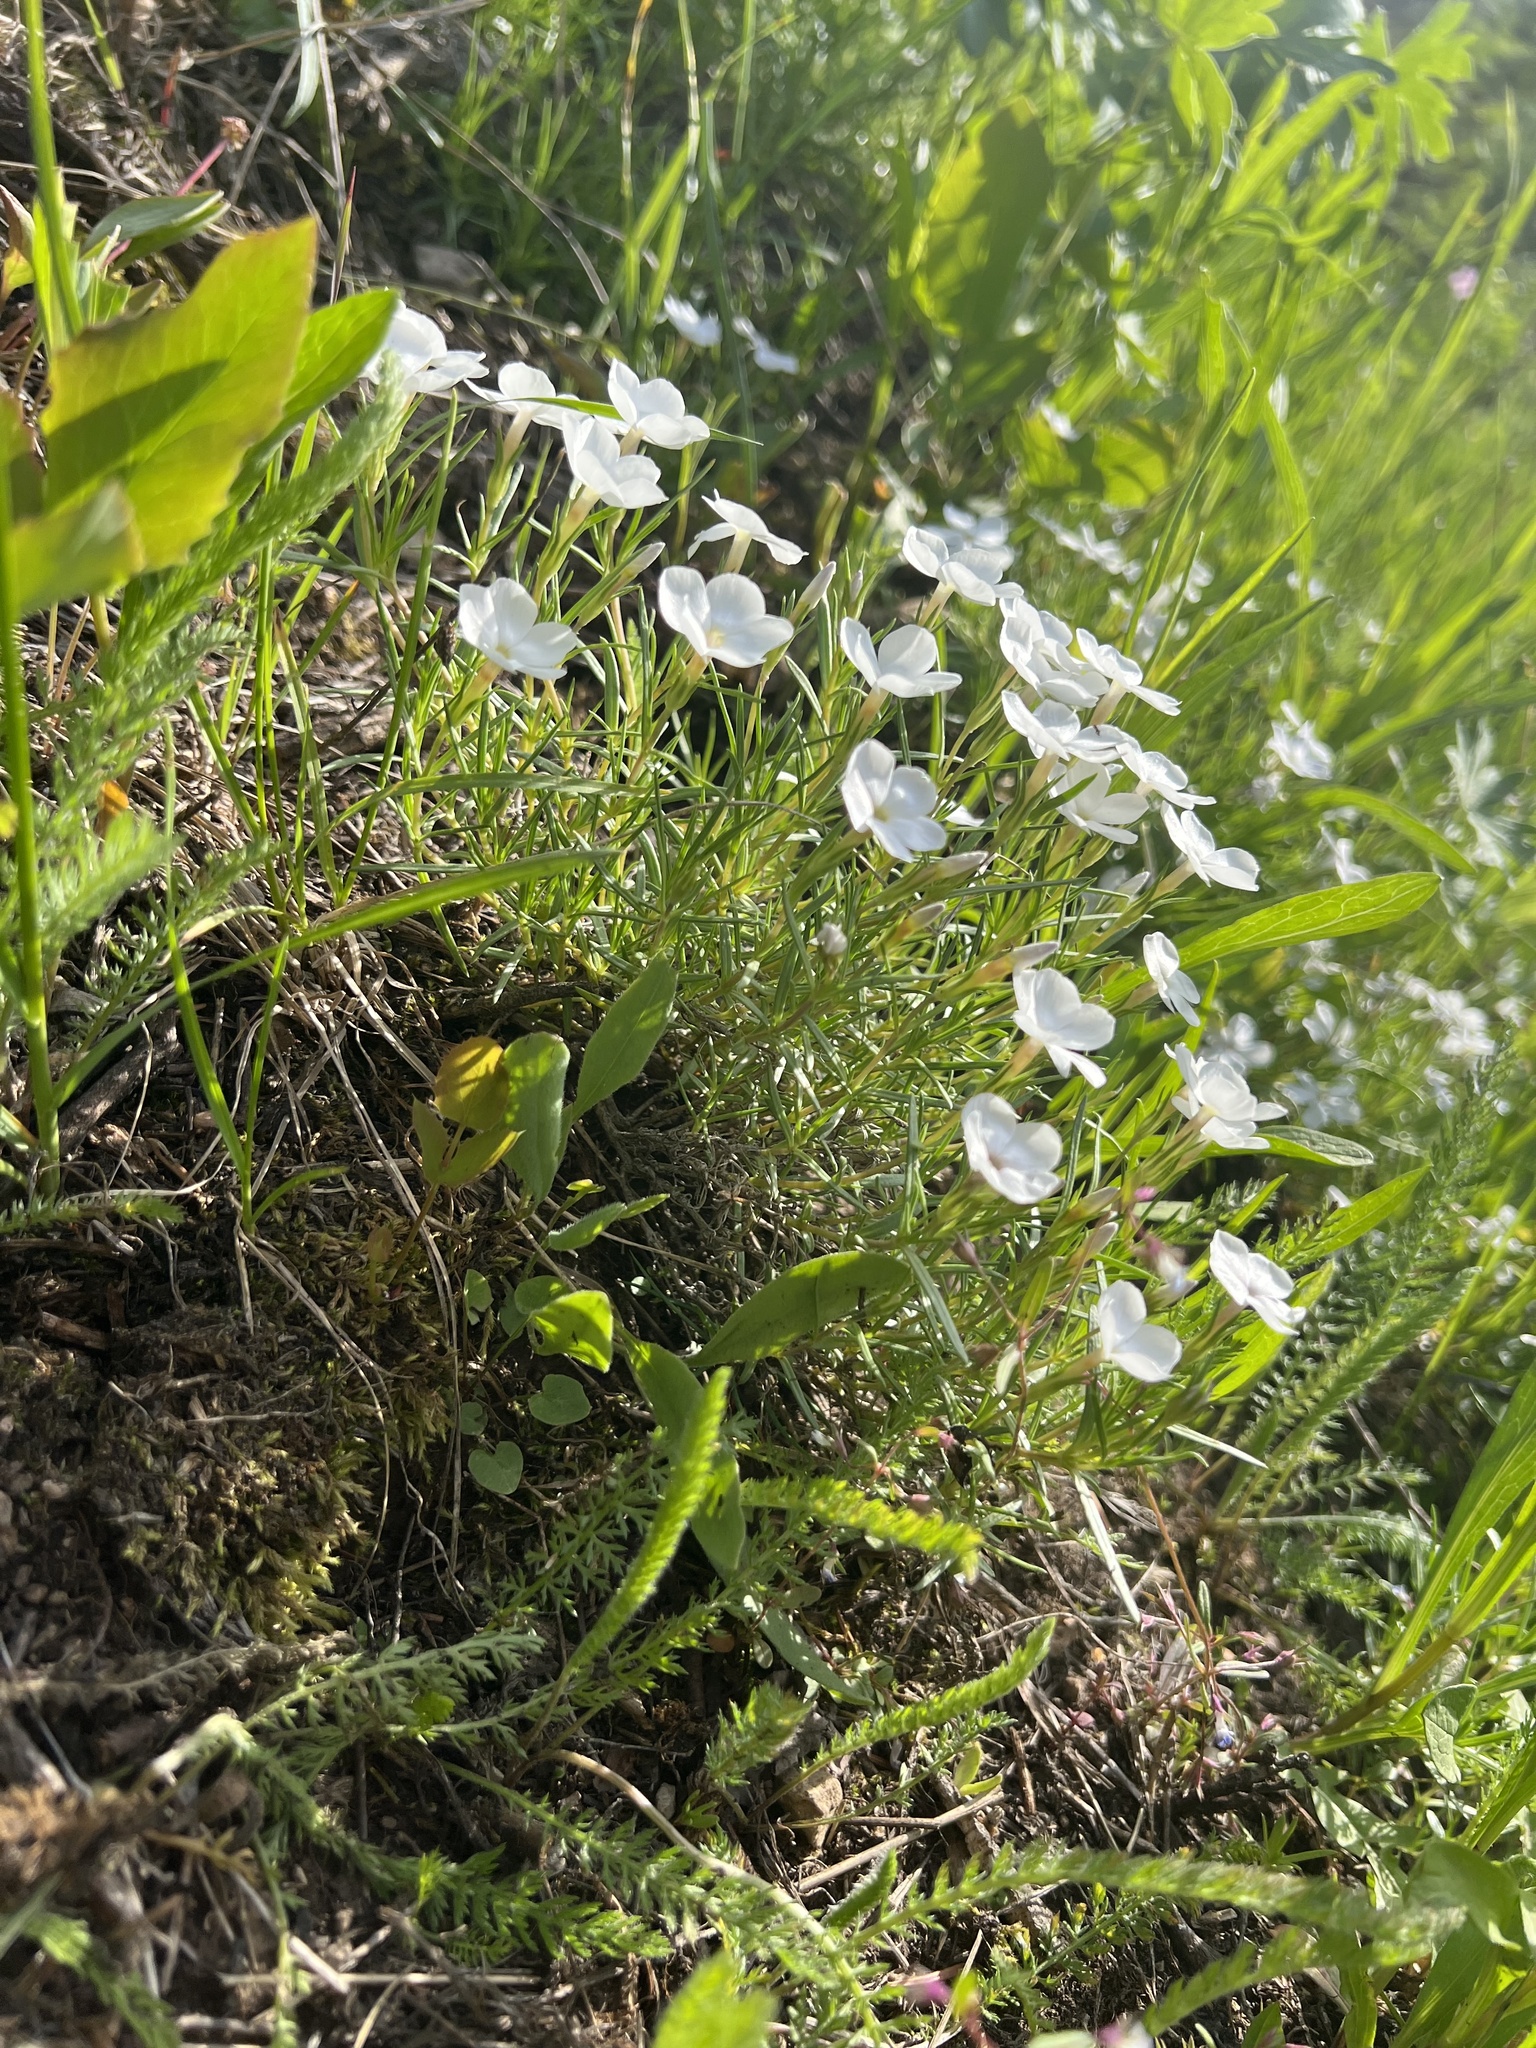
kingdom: Plantae
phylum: Tracheophyta
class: Magnoliopsida
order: Ericales
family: Polemoniaceae
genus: Phlox
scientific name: Phlox multiflora
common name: Rocky mountain phlox
